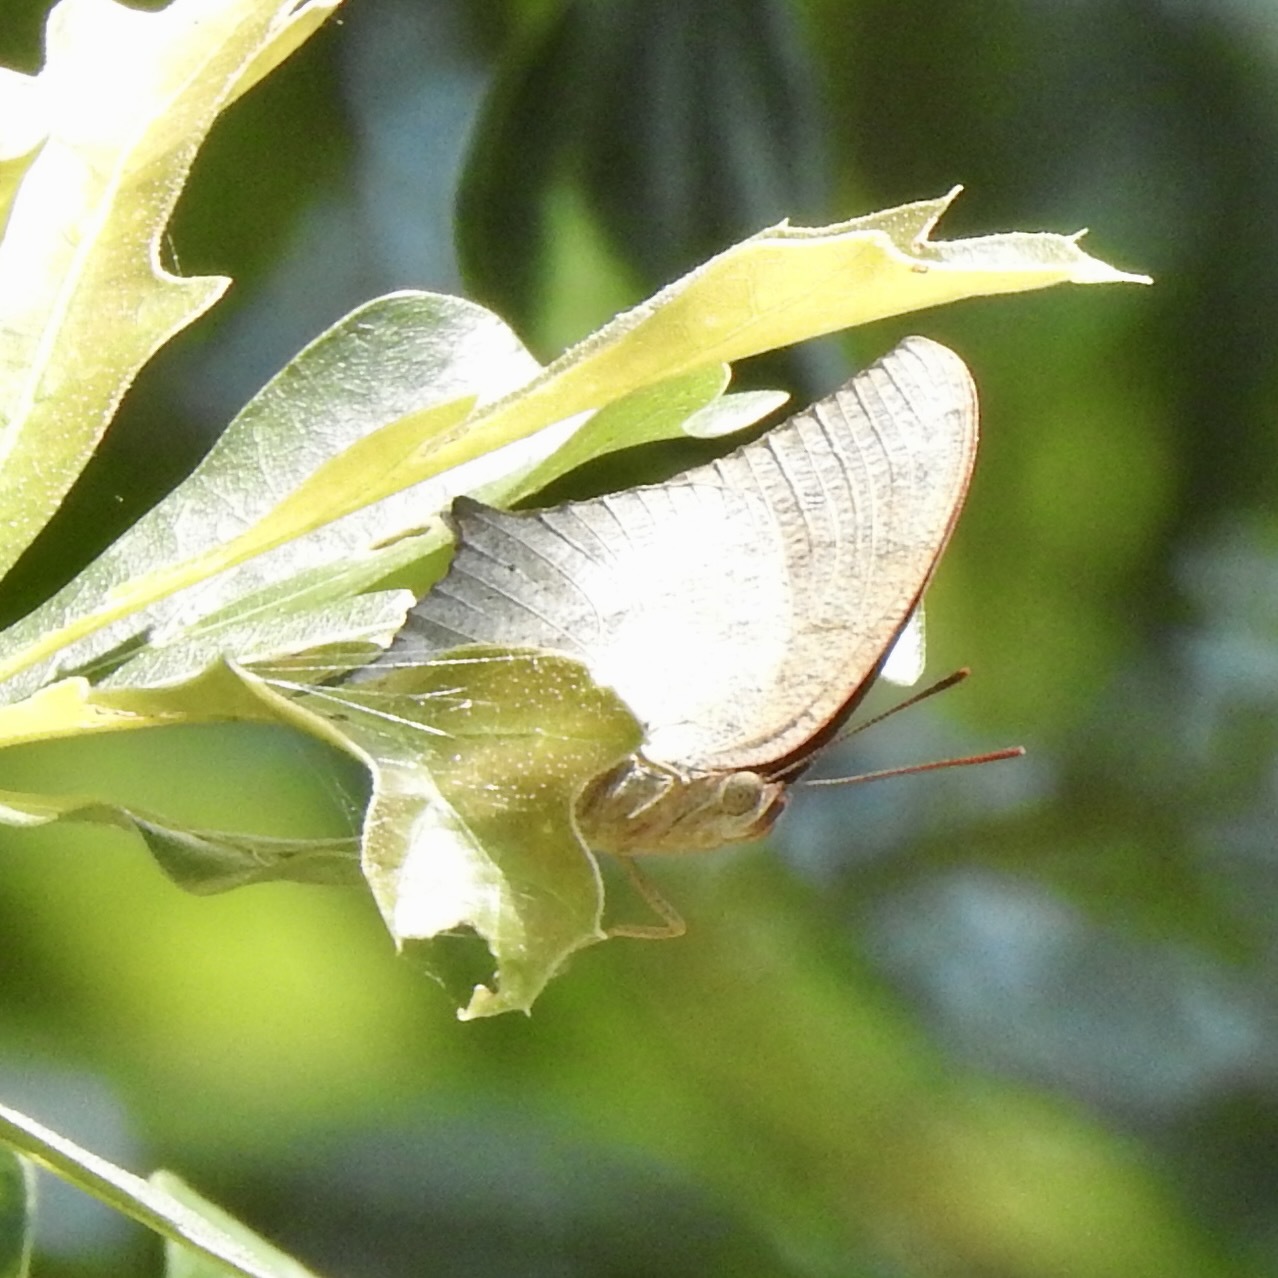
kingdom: Animalia
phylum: Arthropoda
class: Insecta
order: Lepidoptera
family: Nymphalidae
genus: Anaea
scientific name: Anaea andria
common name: Goatweed leafwing
